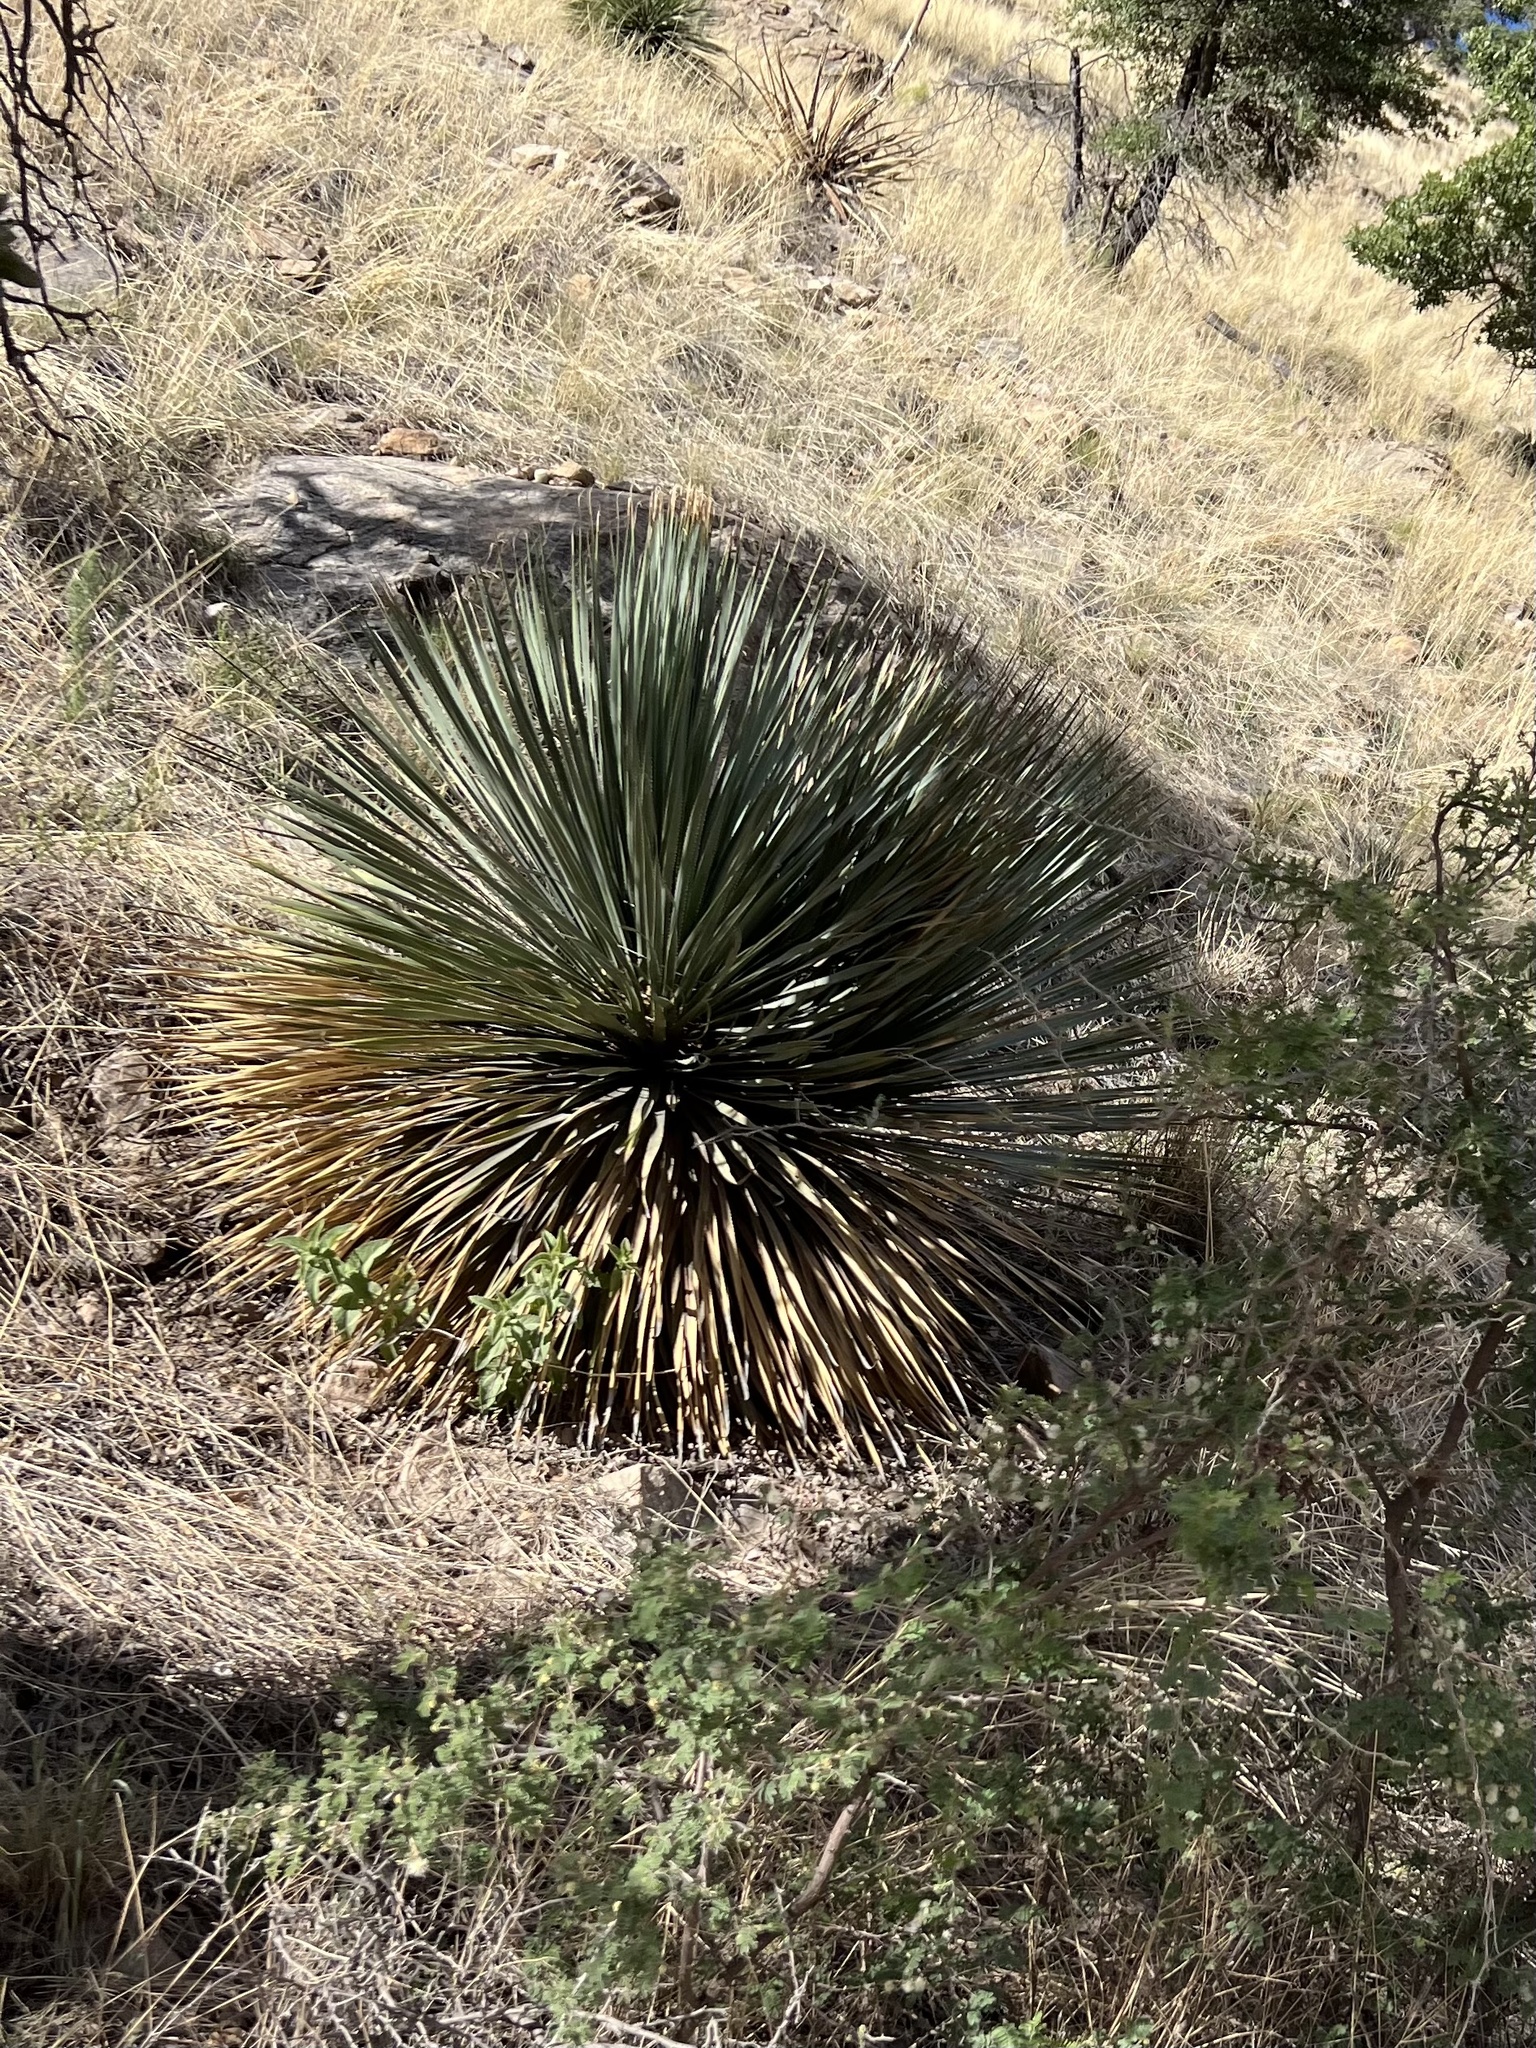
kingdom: Plantae
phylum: Tracheophyta
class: Liliopsida
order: Asparagales
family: Asparagaceae
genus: Dasylirion
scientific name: Dasylirion wheeleri
